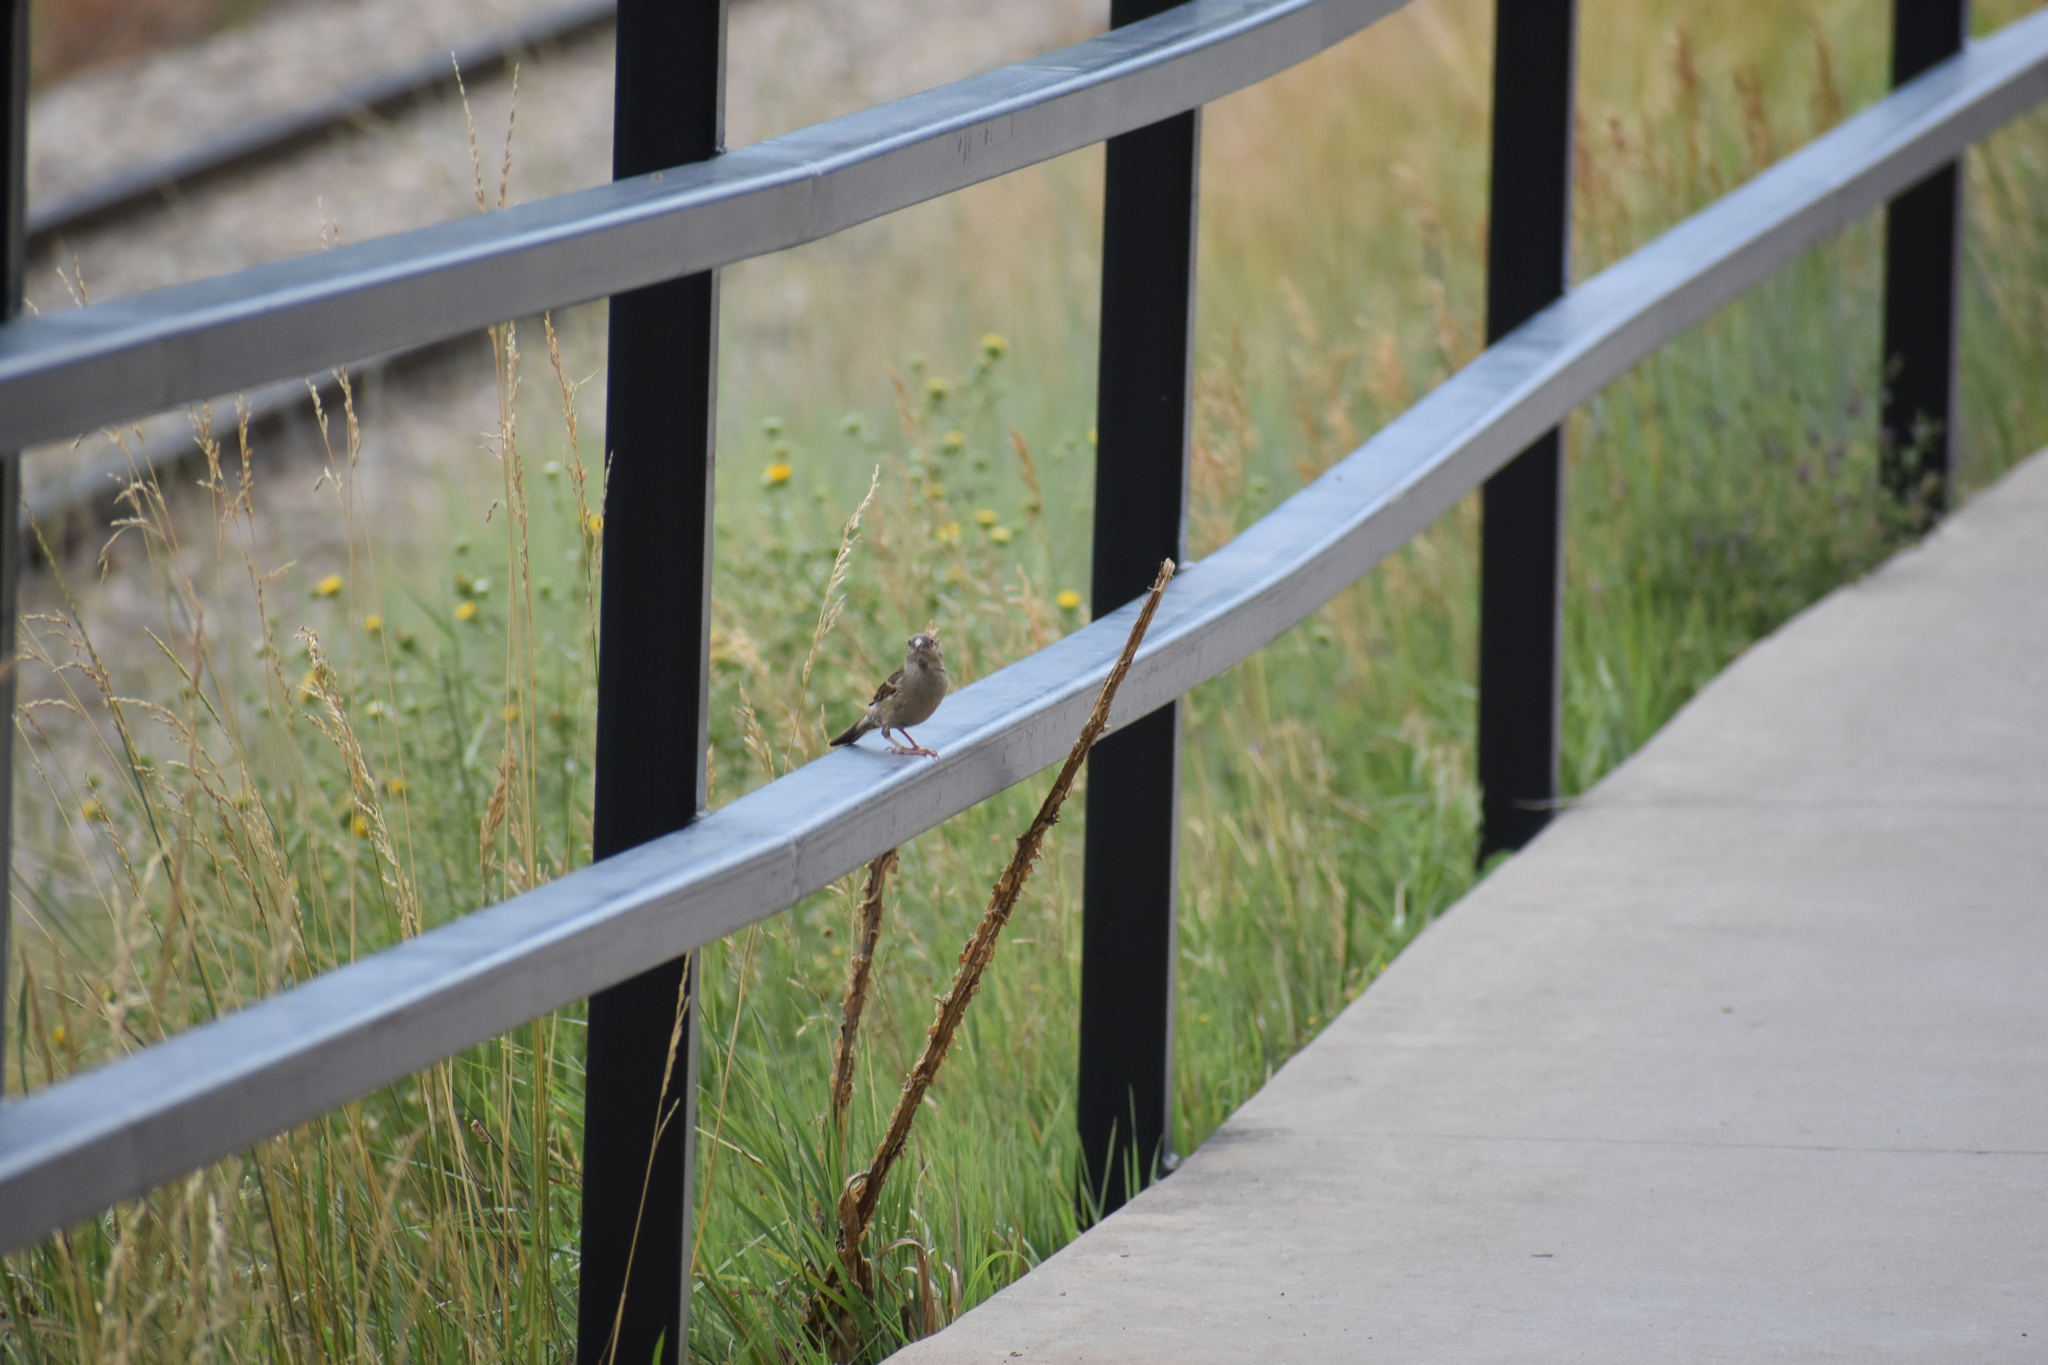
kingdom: Animalia
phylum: Chordata
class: Aves
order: Passeriformes
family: Passeridae
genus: Passer
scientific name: Passer domesticus
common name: House sparrow
